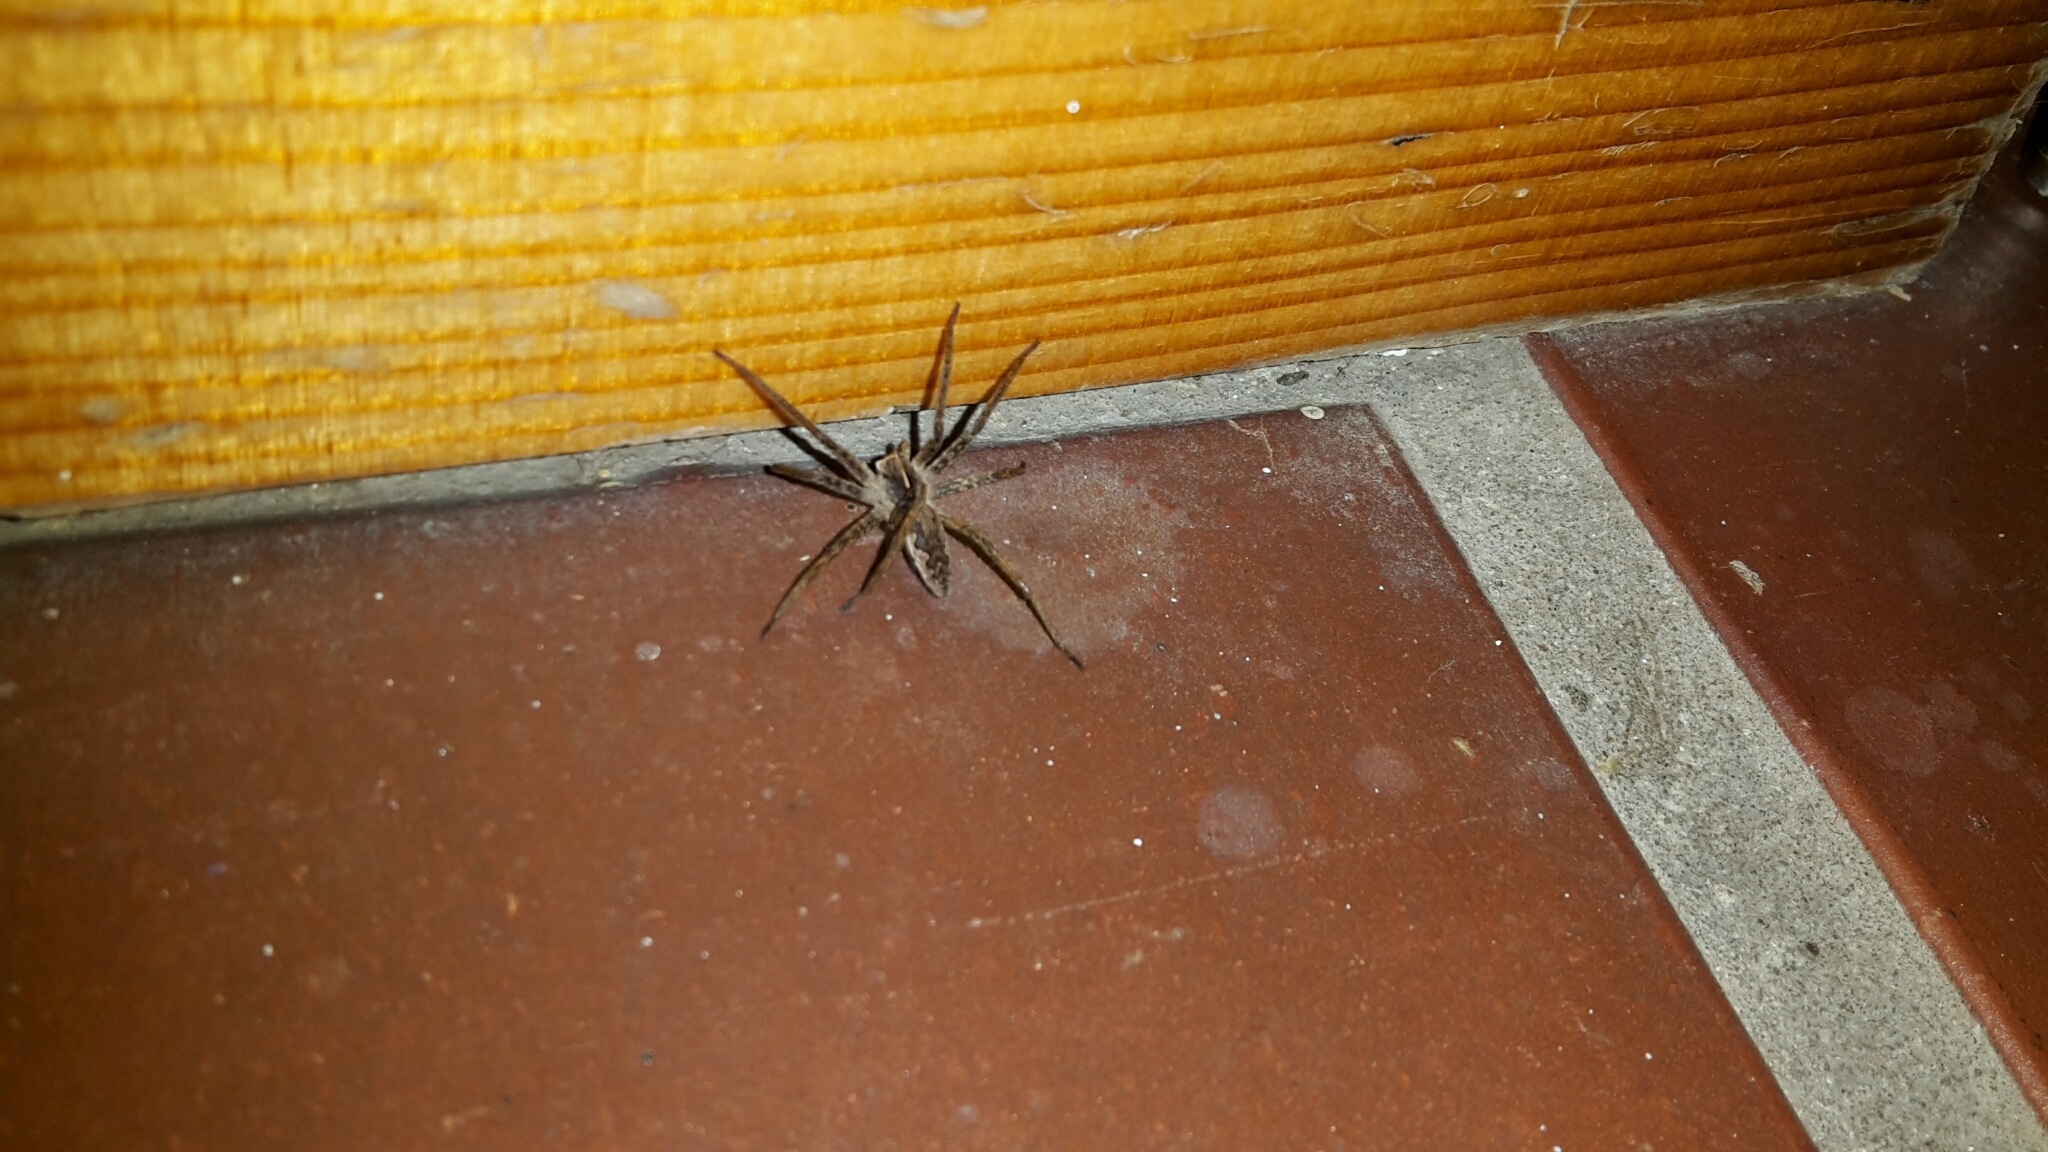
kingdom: Animalia
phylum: Arthropoda
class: Arachnida
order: Araneae
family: Pisauridae
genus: Pisaura
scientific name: Pisaura mirabilis
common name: Tent spider
